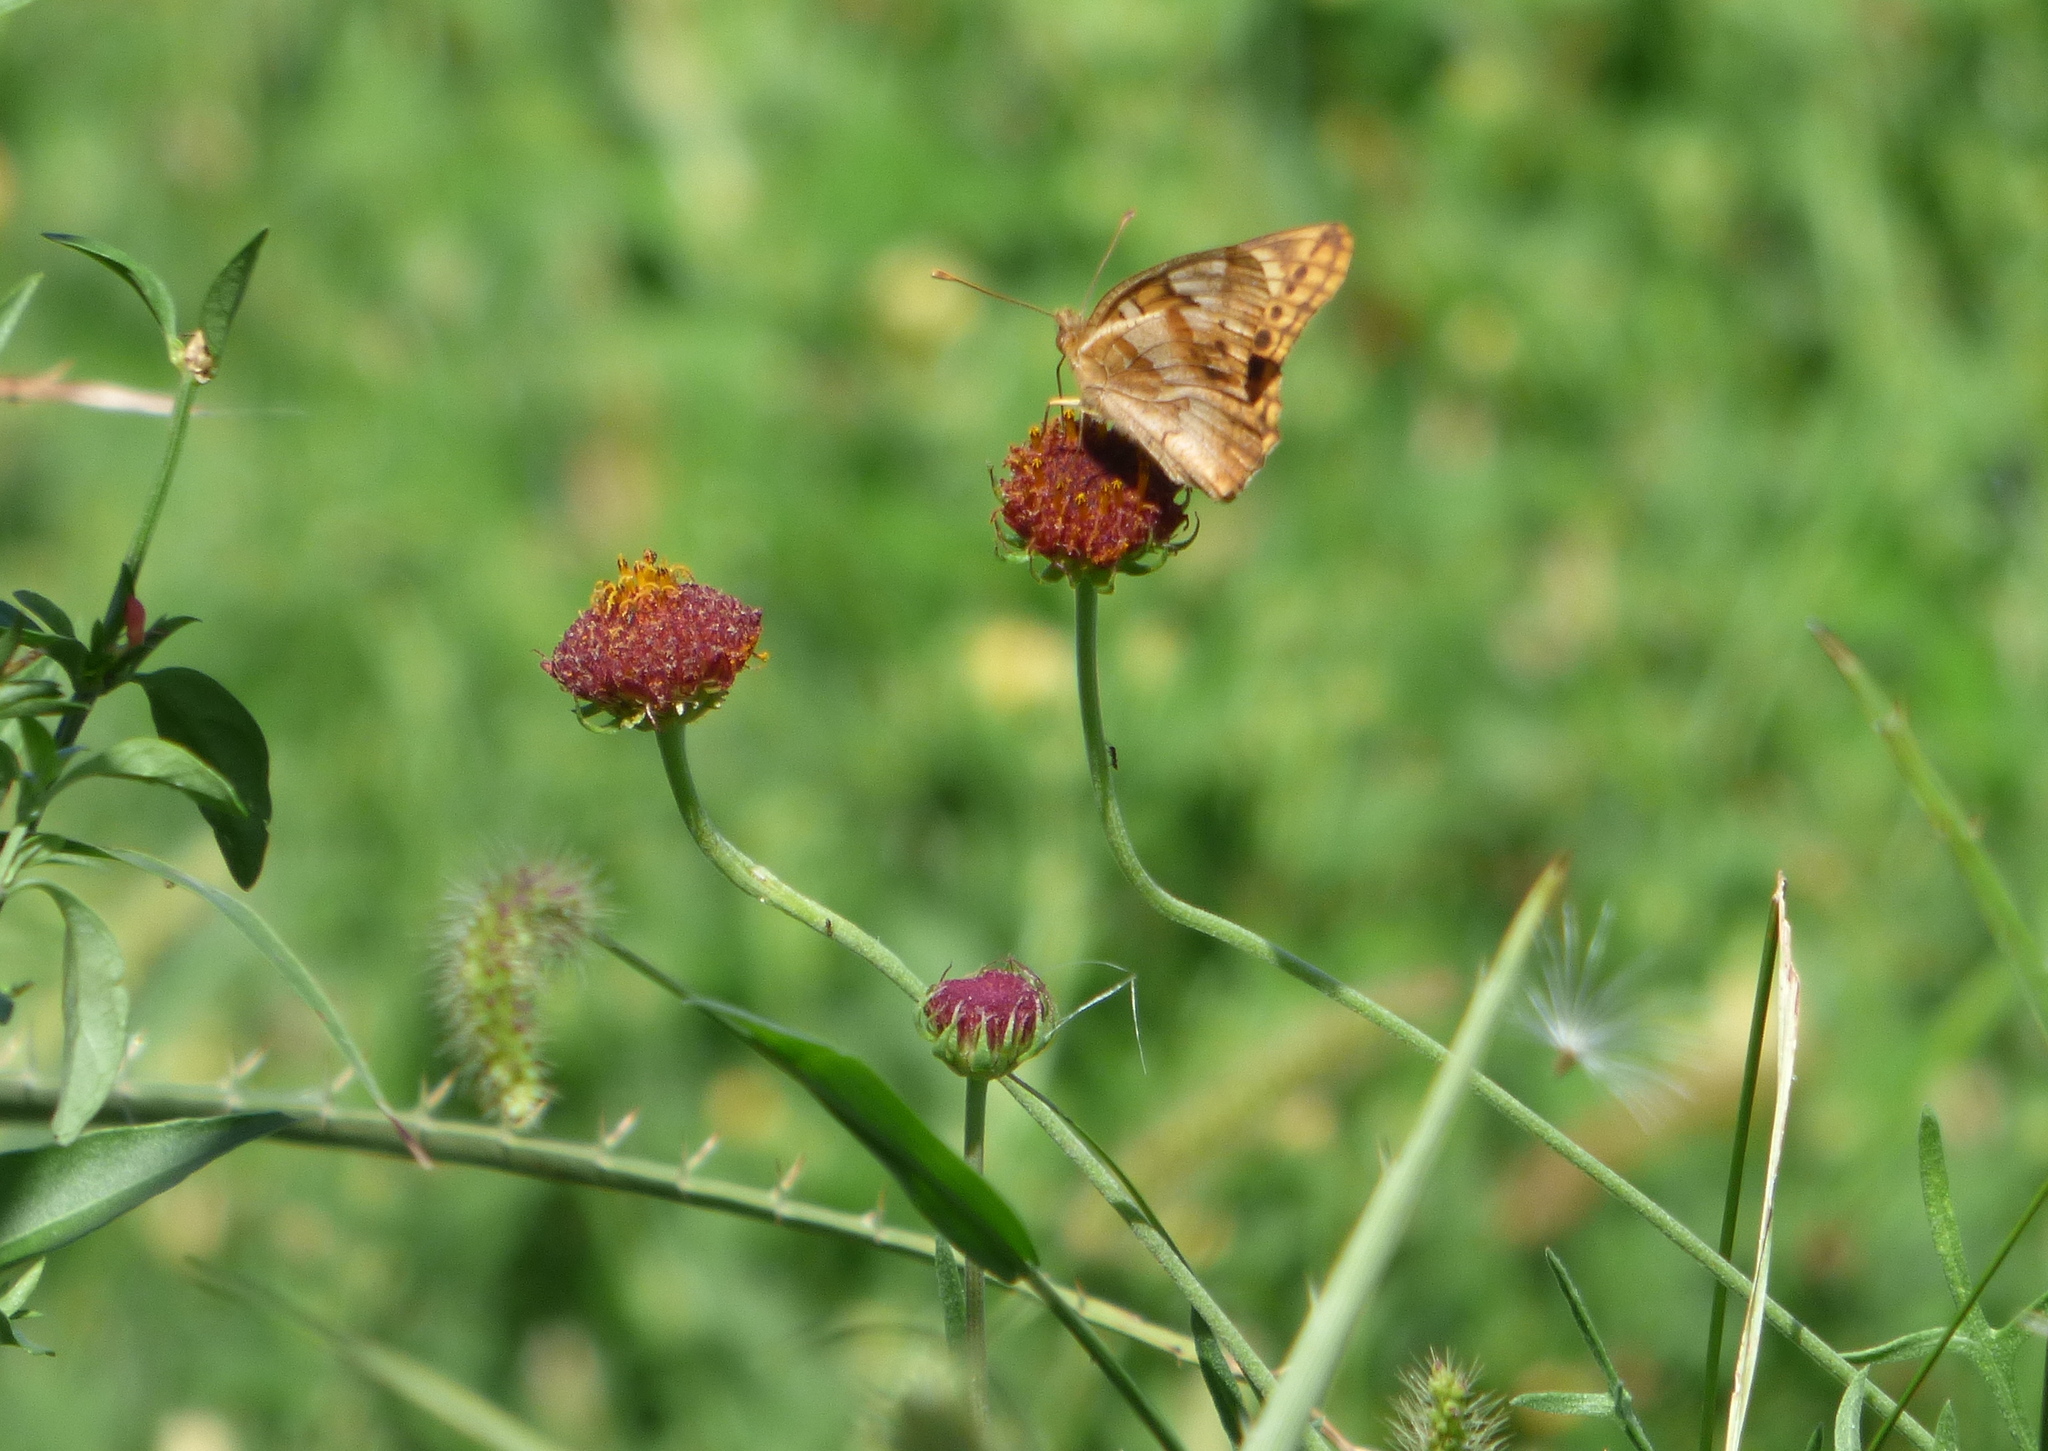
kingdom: Plantae
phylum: Tracheophyta
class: Magnoliopsida
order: Asterales
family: Asteraceae
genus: Gaillardia
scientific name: Gaillardia megapotamica
